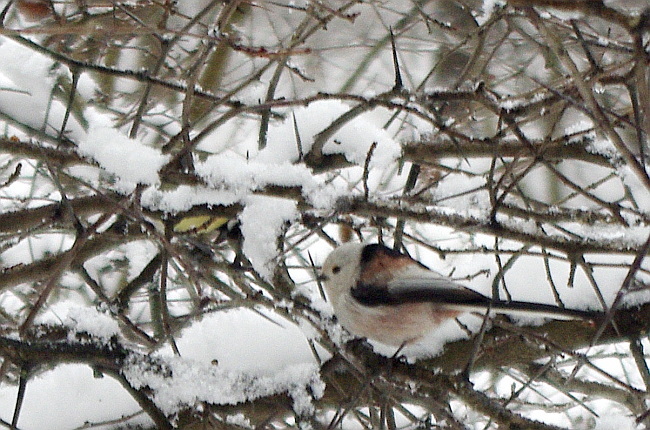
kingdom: Animalia
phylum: Chordata
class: Aves
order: Passeriformes
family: Aegithalidae
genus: Aegithalos
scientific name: Aegithalos caudatus
